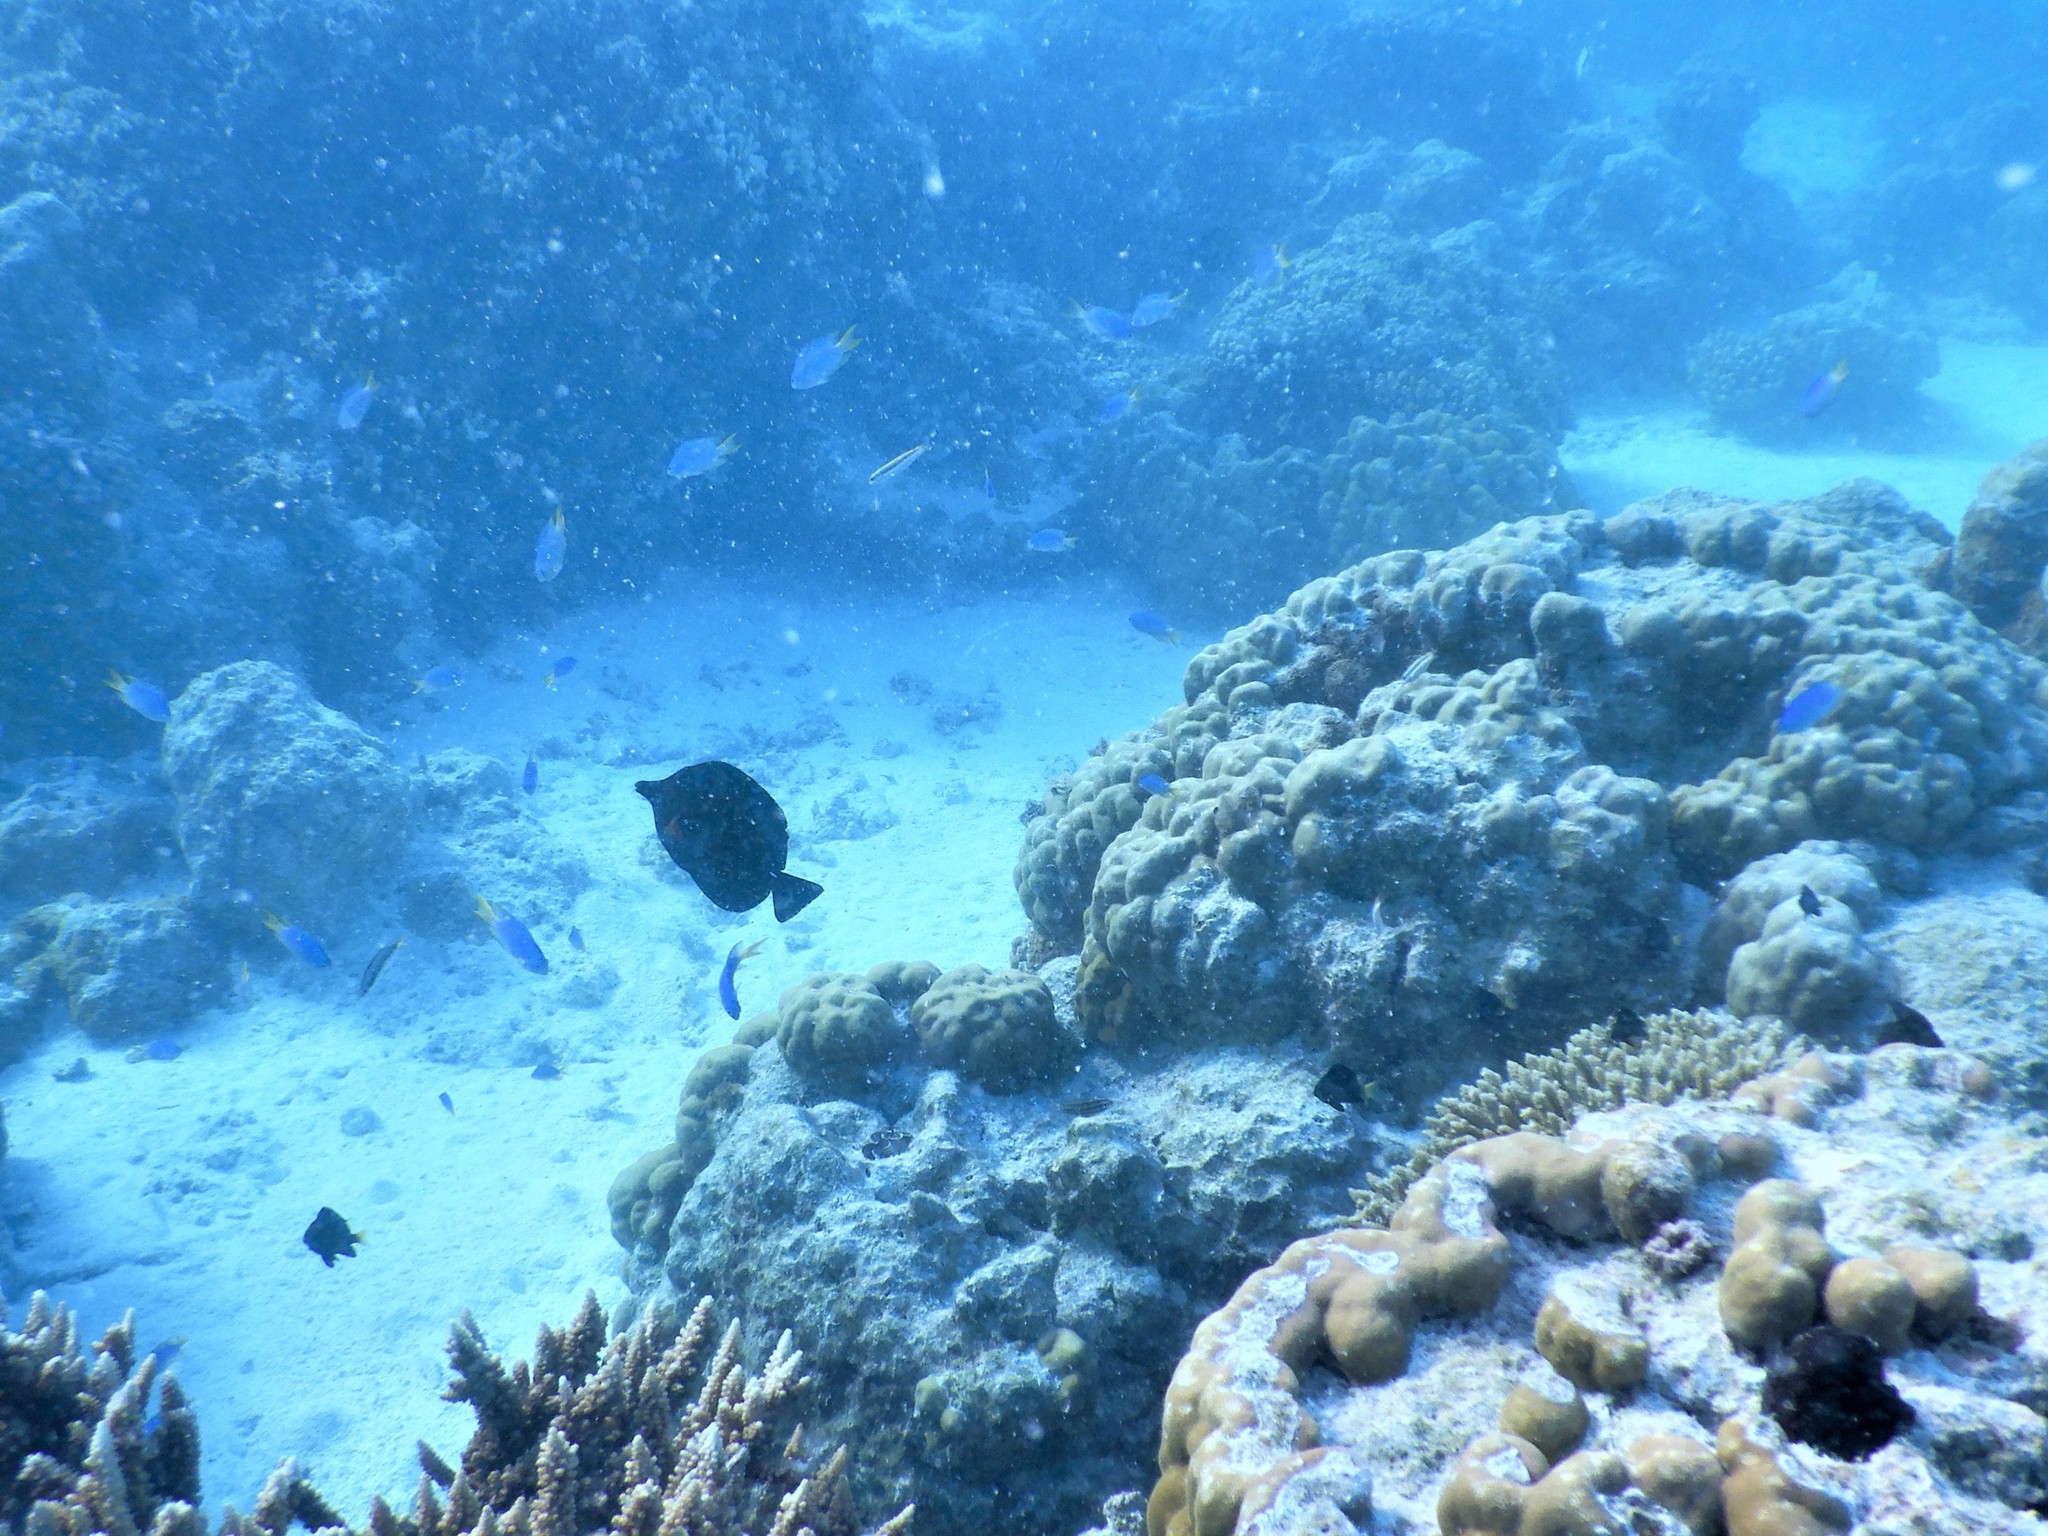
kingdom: Animalia
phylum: Chordata
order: Perciformes
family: Acanthuridae
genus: Zebrasoma
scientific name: Zebrasoma scopas
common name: Twotone tang
